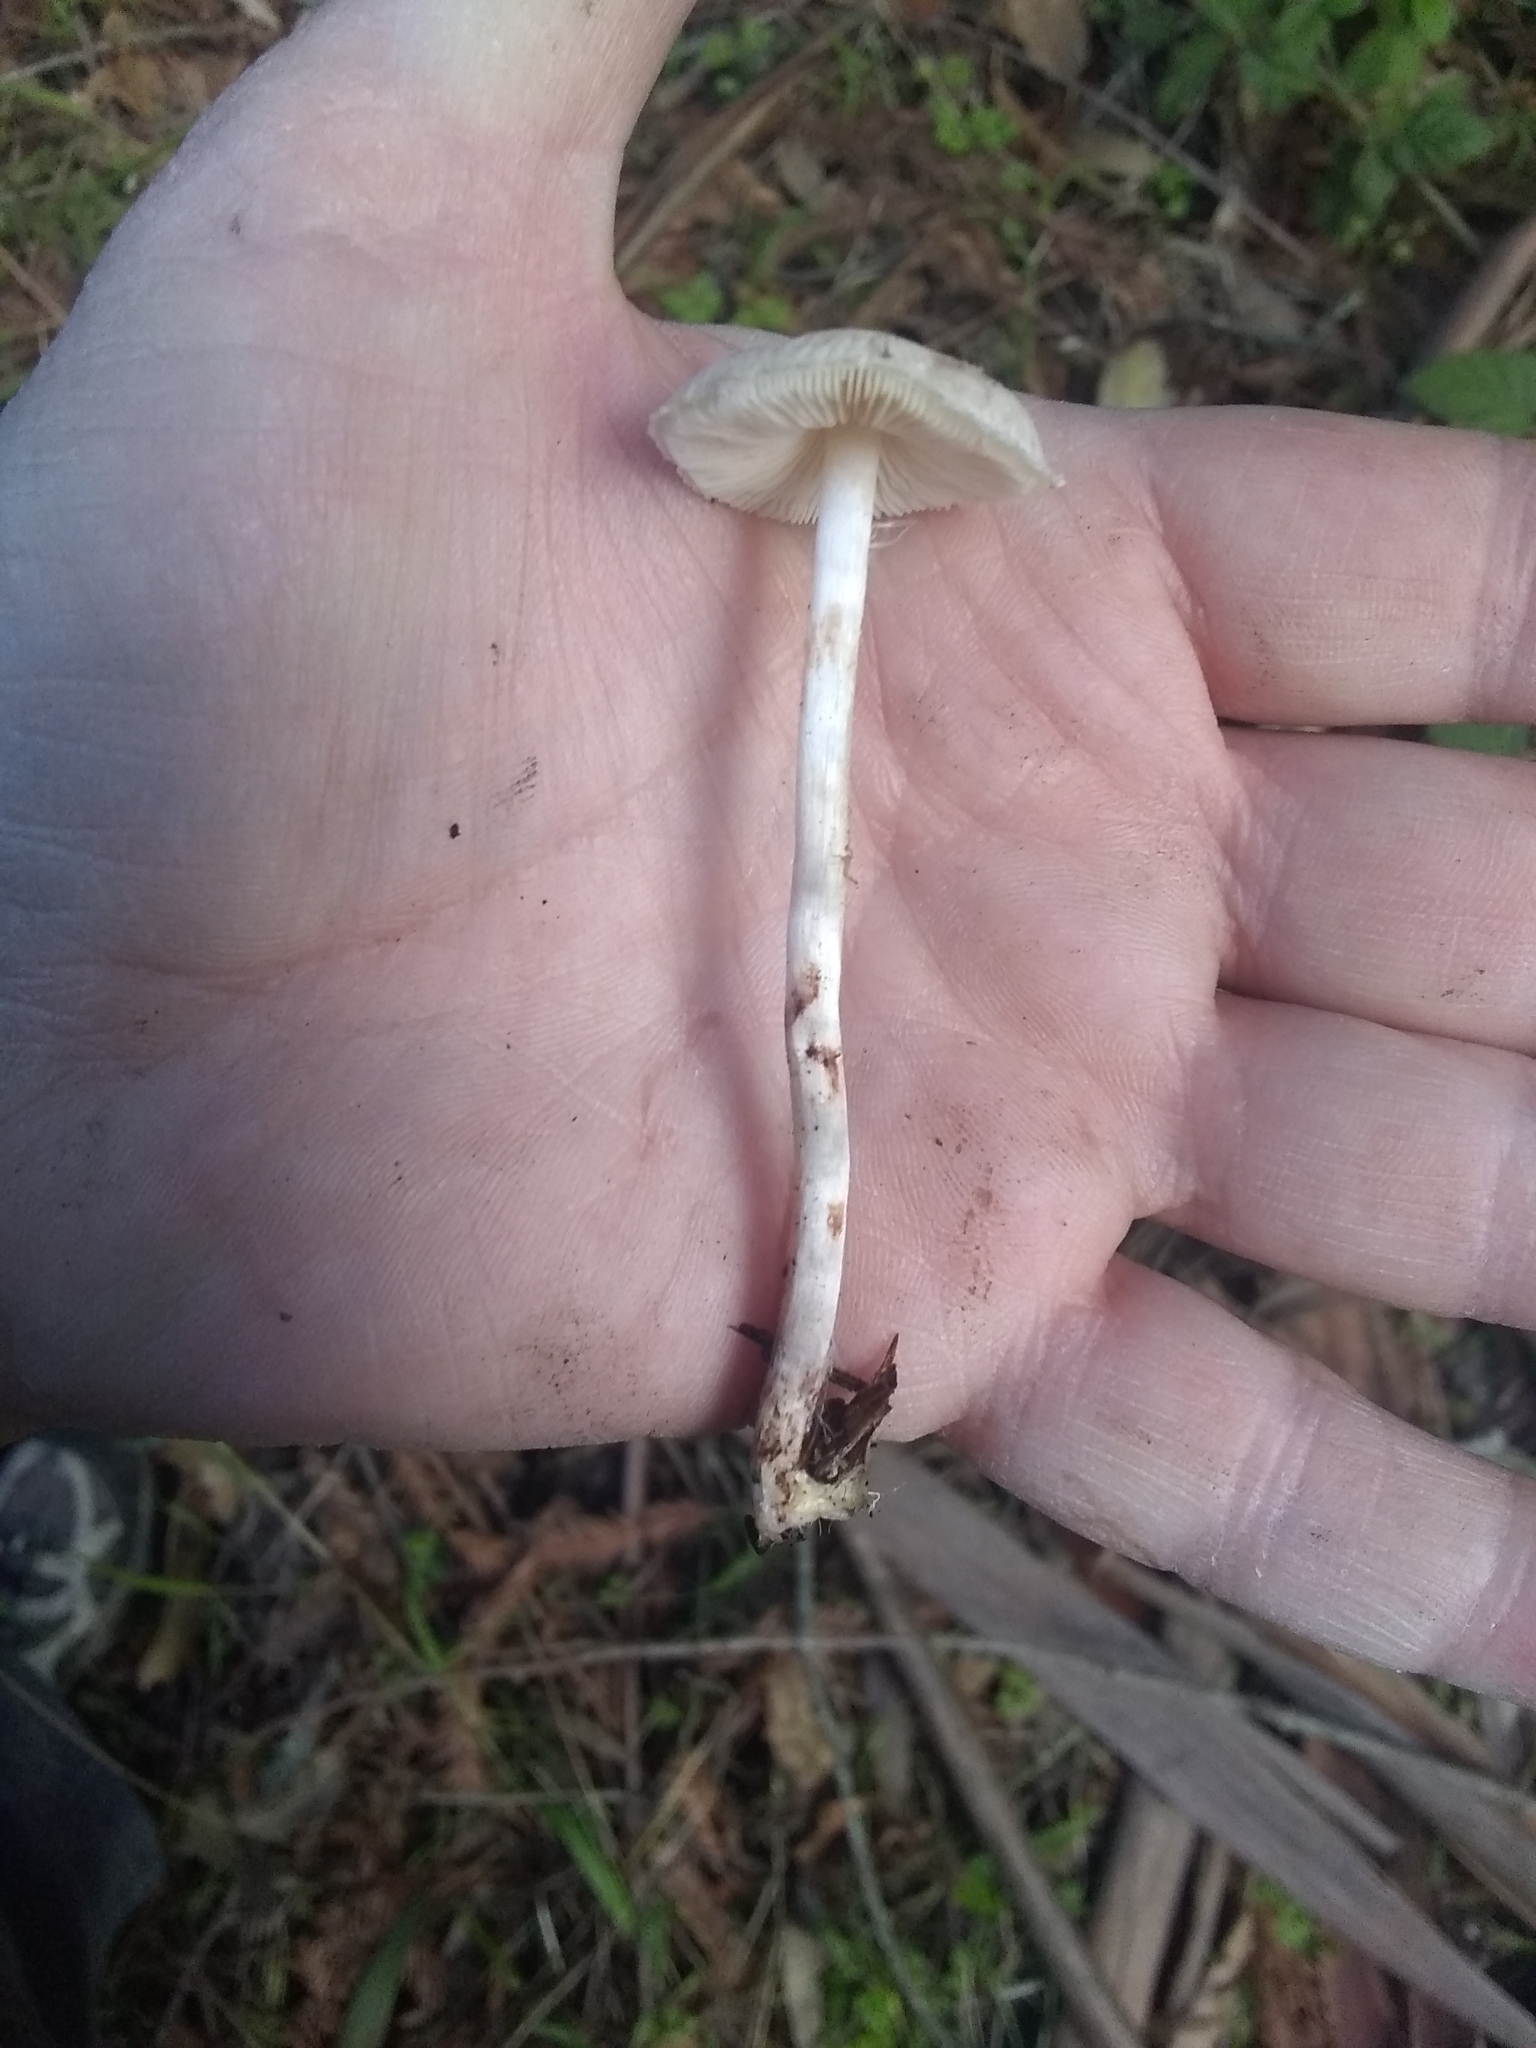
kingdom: Fungi
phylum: Basidiomycota
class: Agaricomycetes
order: Agaricales
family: Agaricaceae
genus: Lepiota
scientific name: Lepiota castaneidisca
